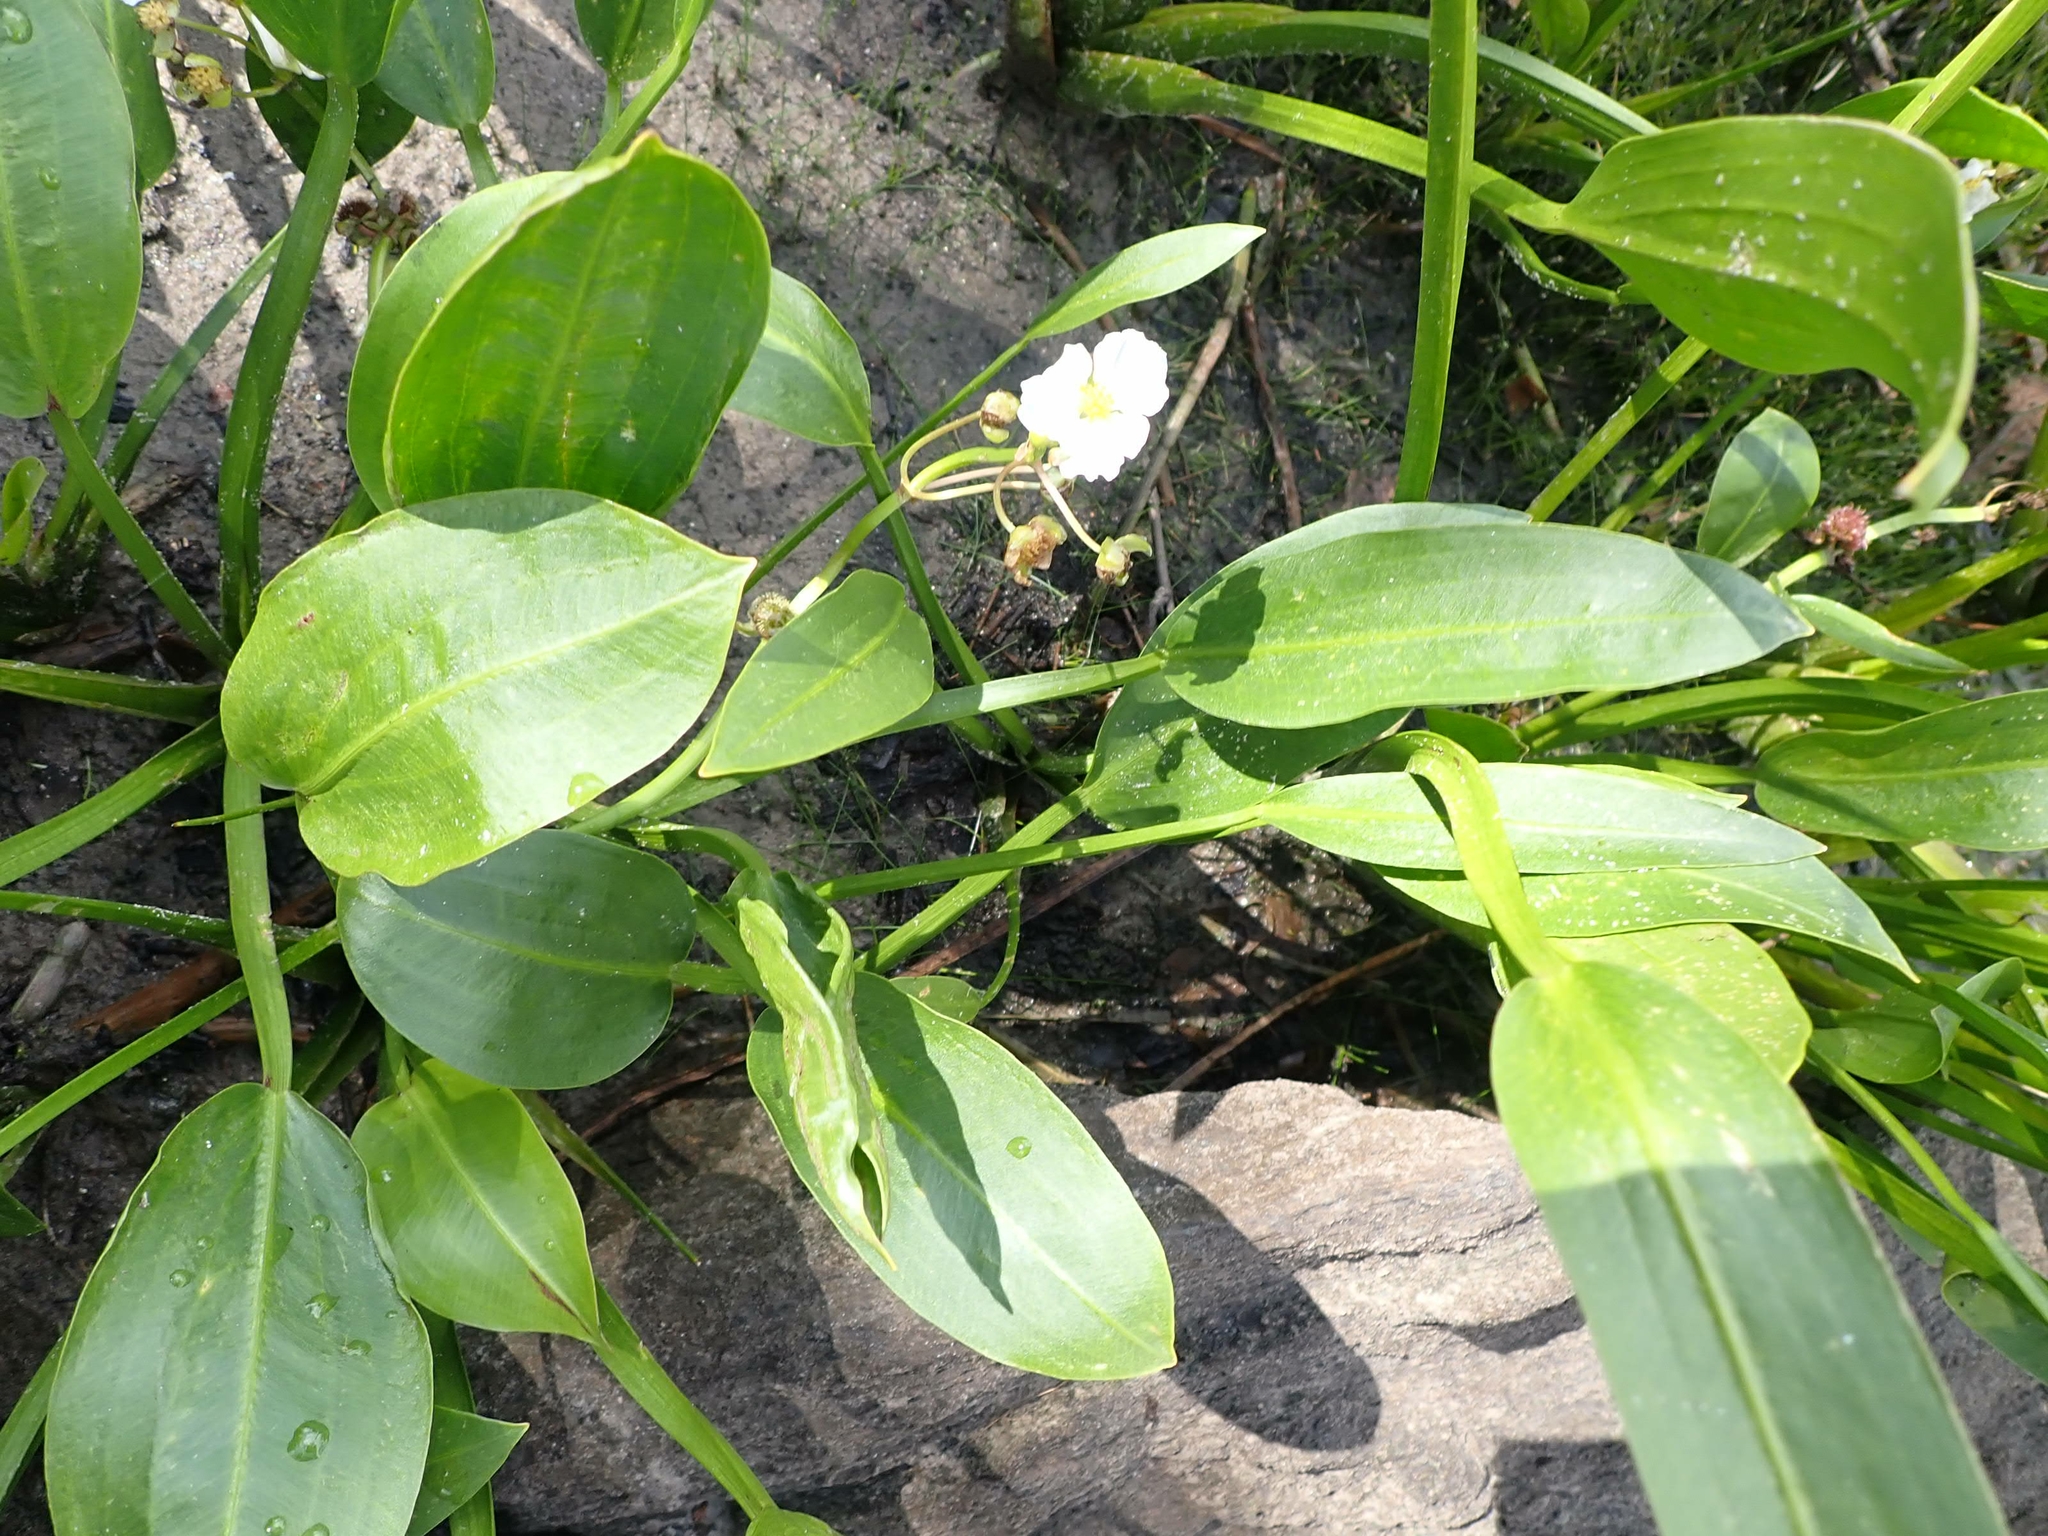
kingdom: Plantae
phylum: Tracheophyta
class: Liliopsida
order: Alismatales
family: Alismataceae
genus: Sagittaria
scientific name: Sagittaria rigida
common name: Canadian arrowhead
